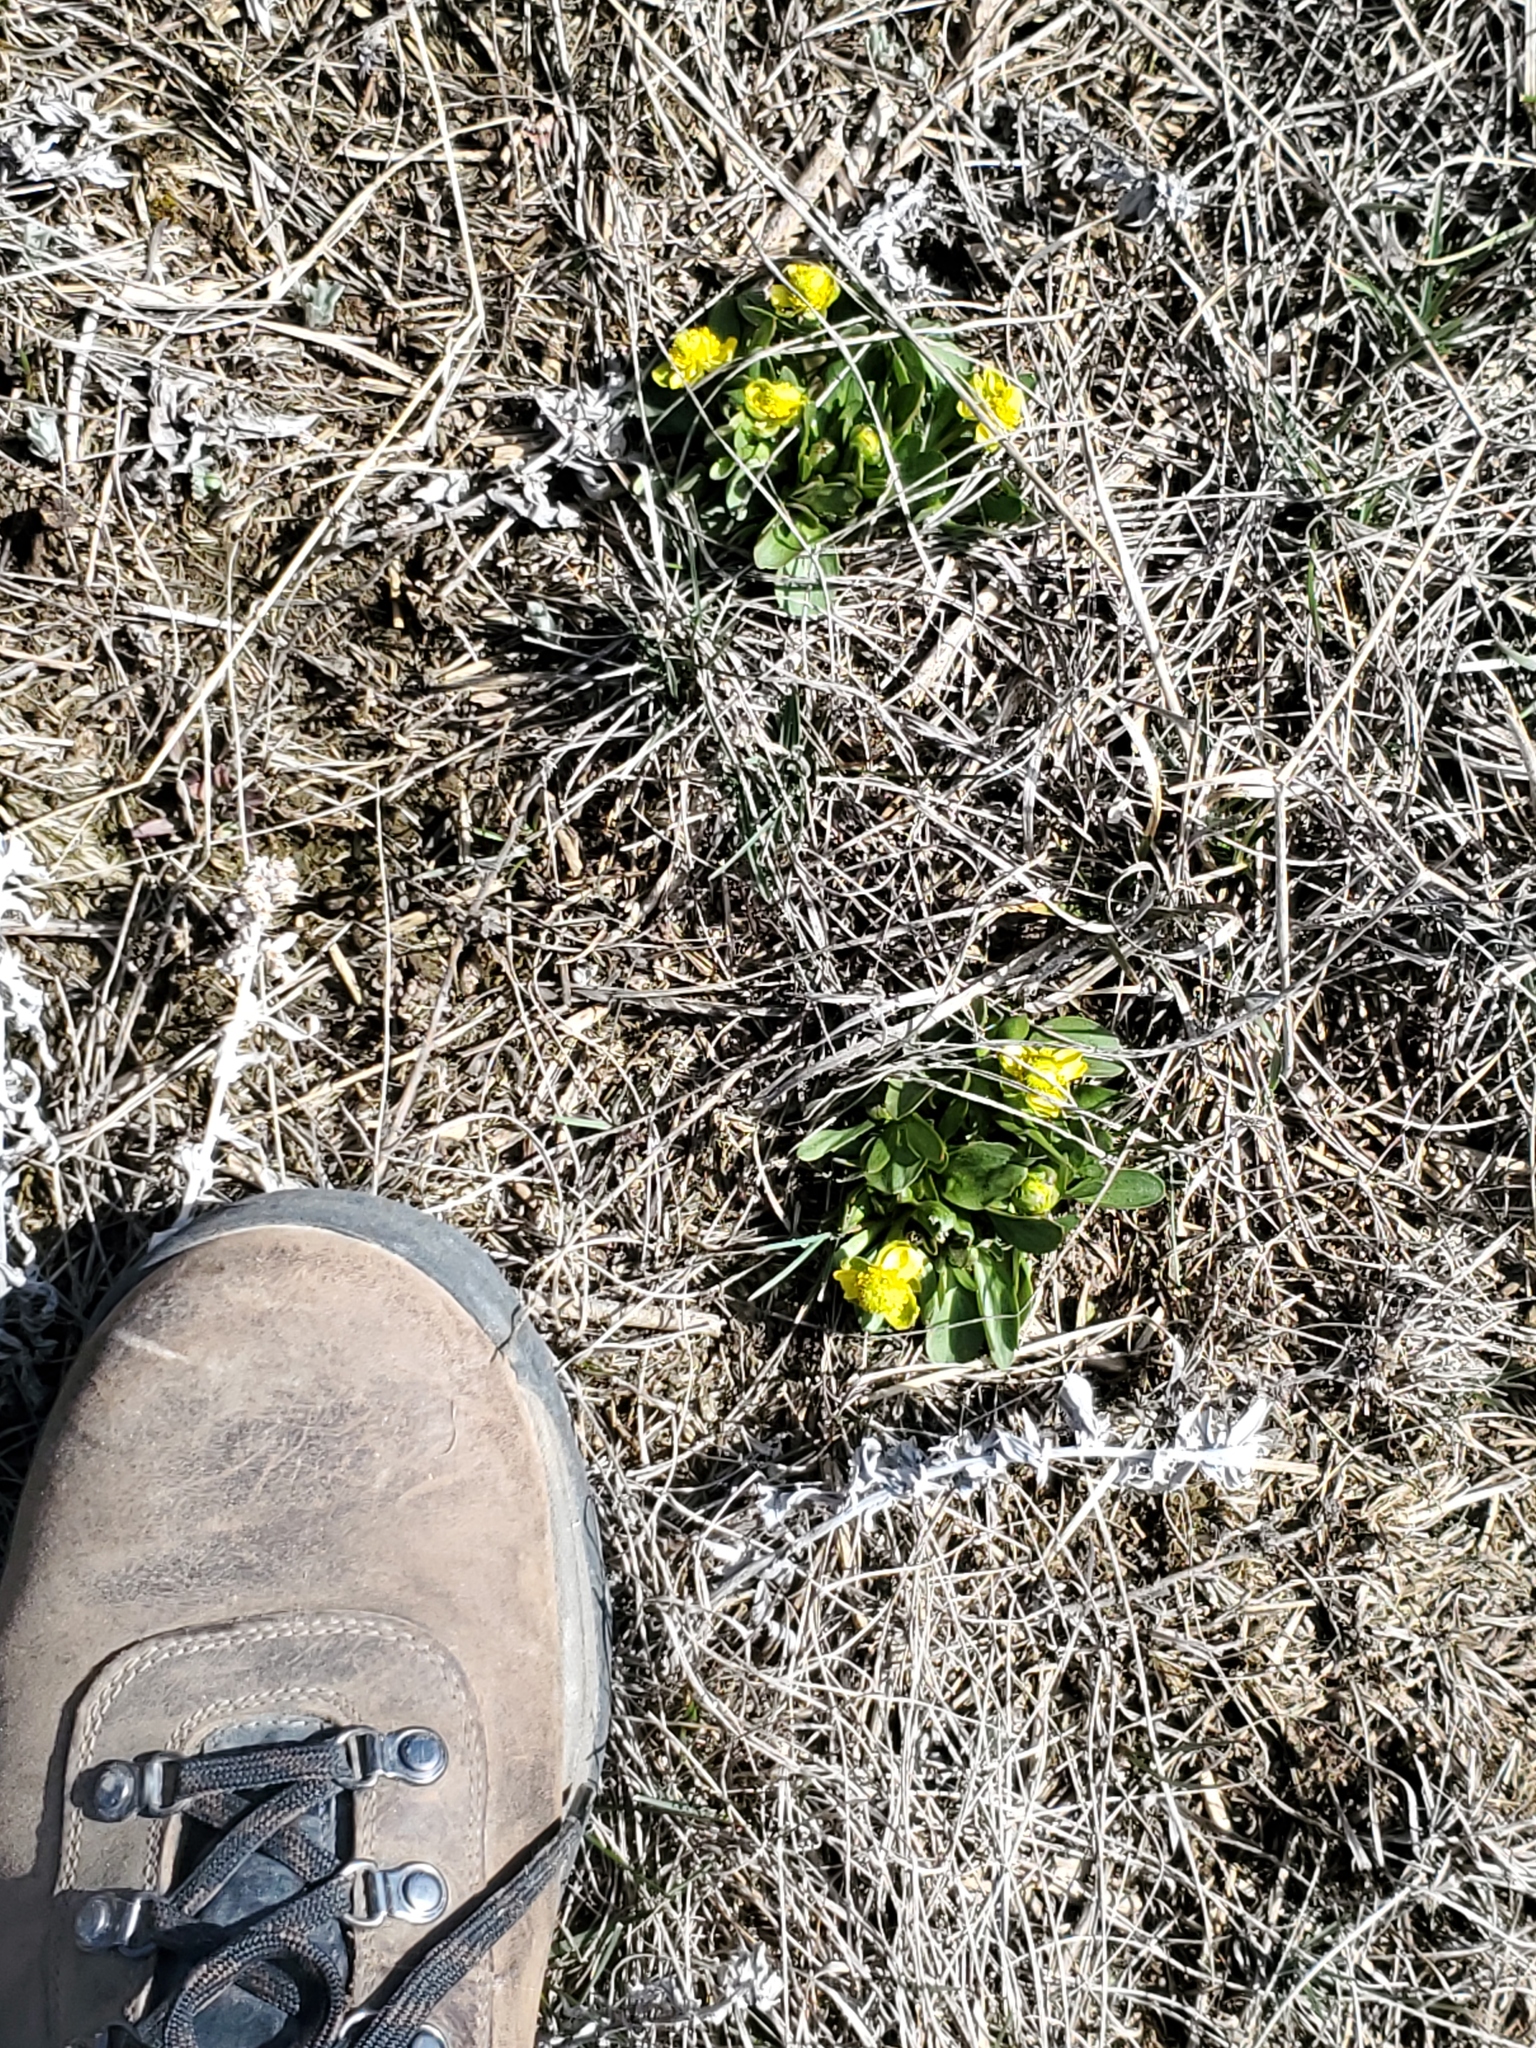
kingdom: Plantae
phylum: Tracheophyta
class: Magnoliopsida
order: Ranunculales
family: Ranunculaceae
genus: Ranunculus
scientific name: Ranunculus glaberrimus
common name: Sagebrush buttercup
